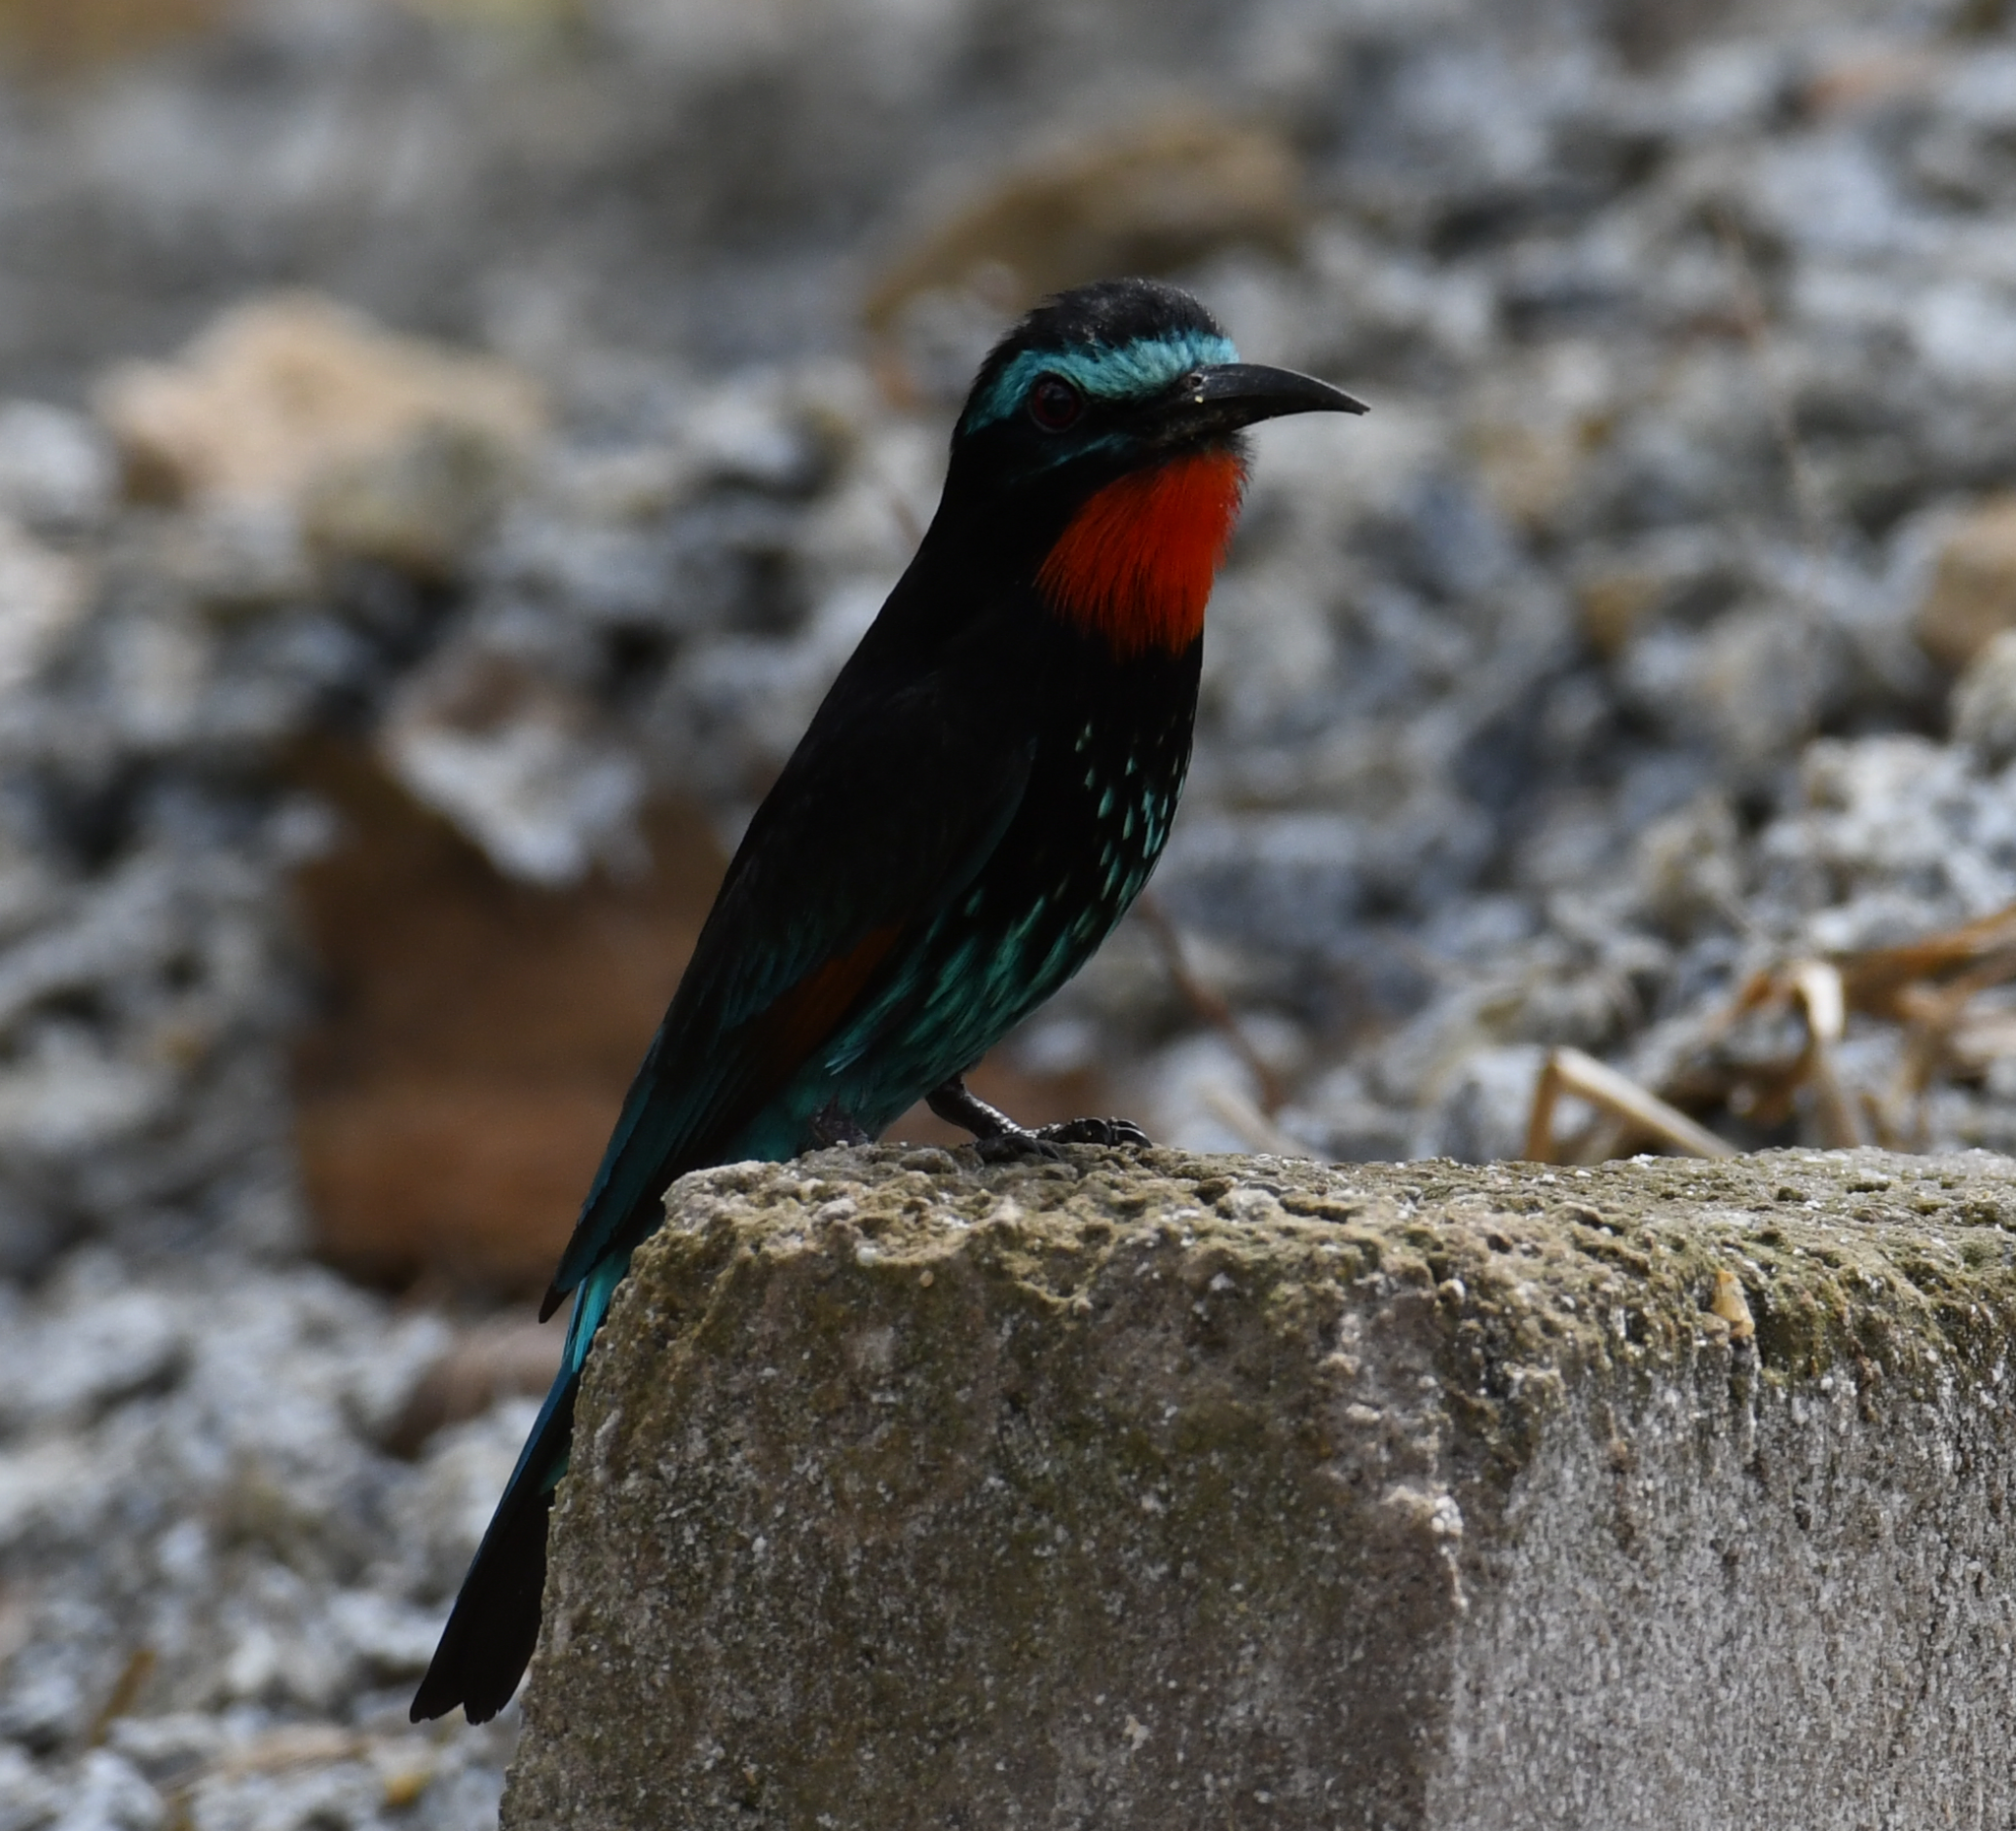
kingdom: Animalia
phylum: Chordata
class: Aves
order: Coraciiformes
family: Meropidae
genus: Merops
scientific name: Merops gularis
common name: Black bee-eater
